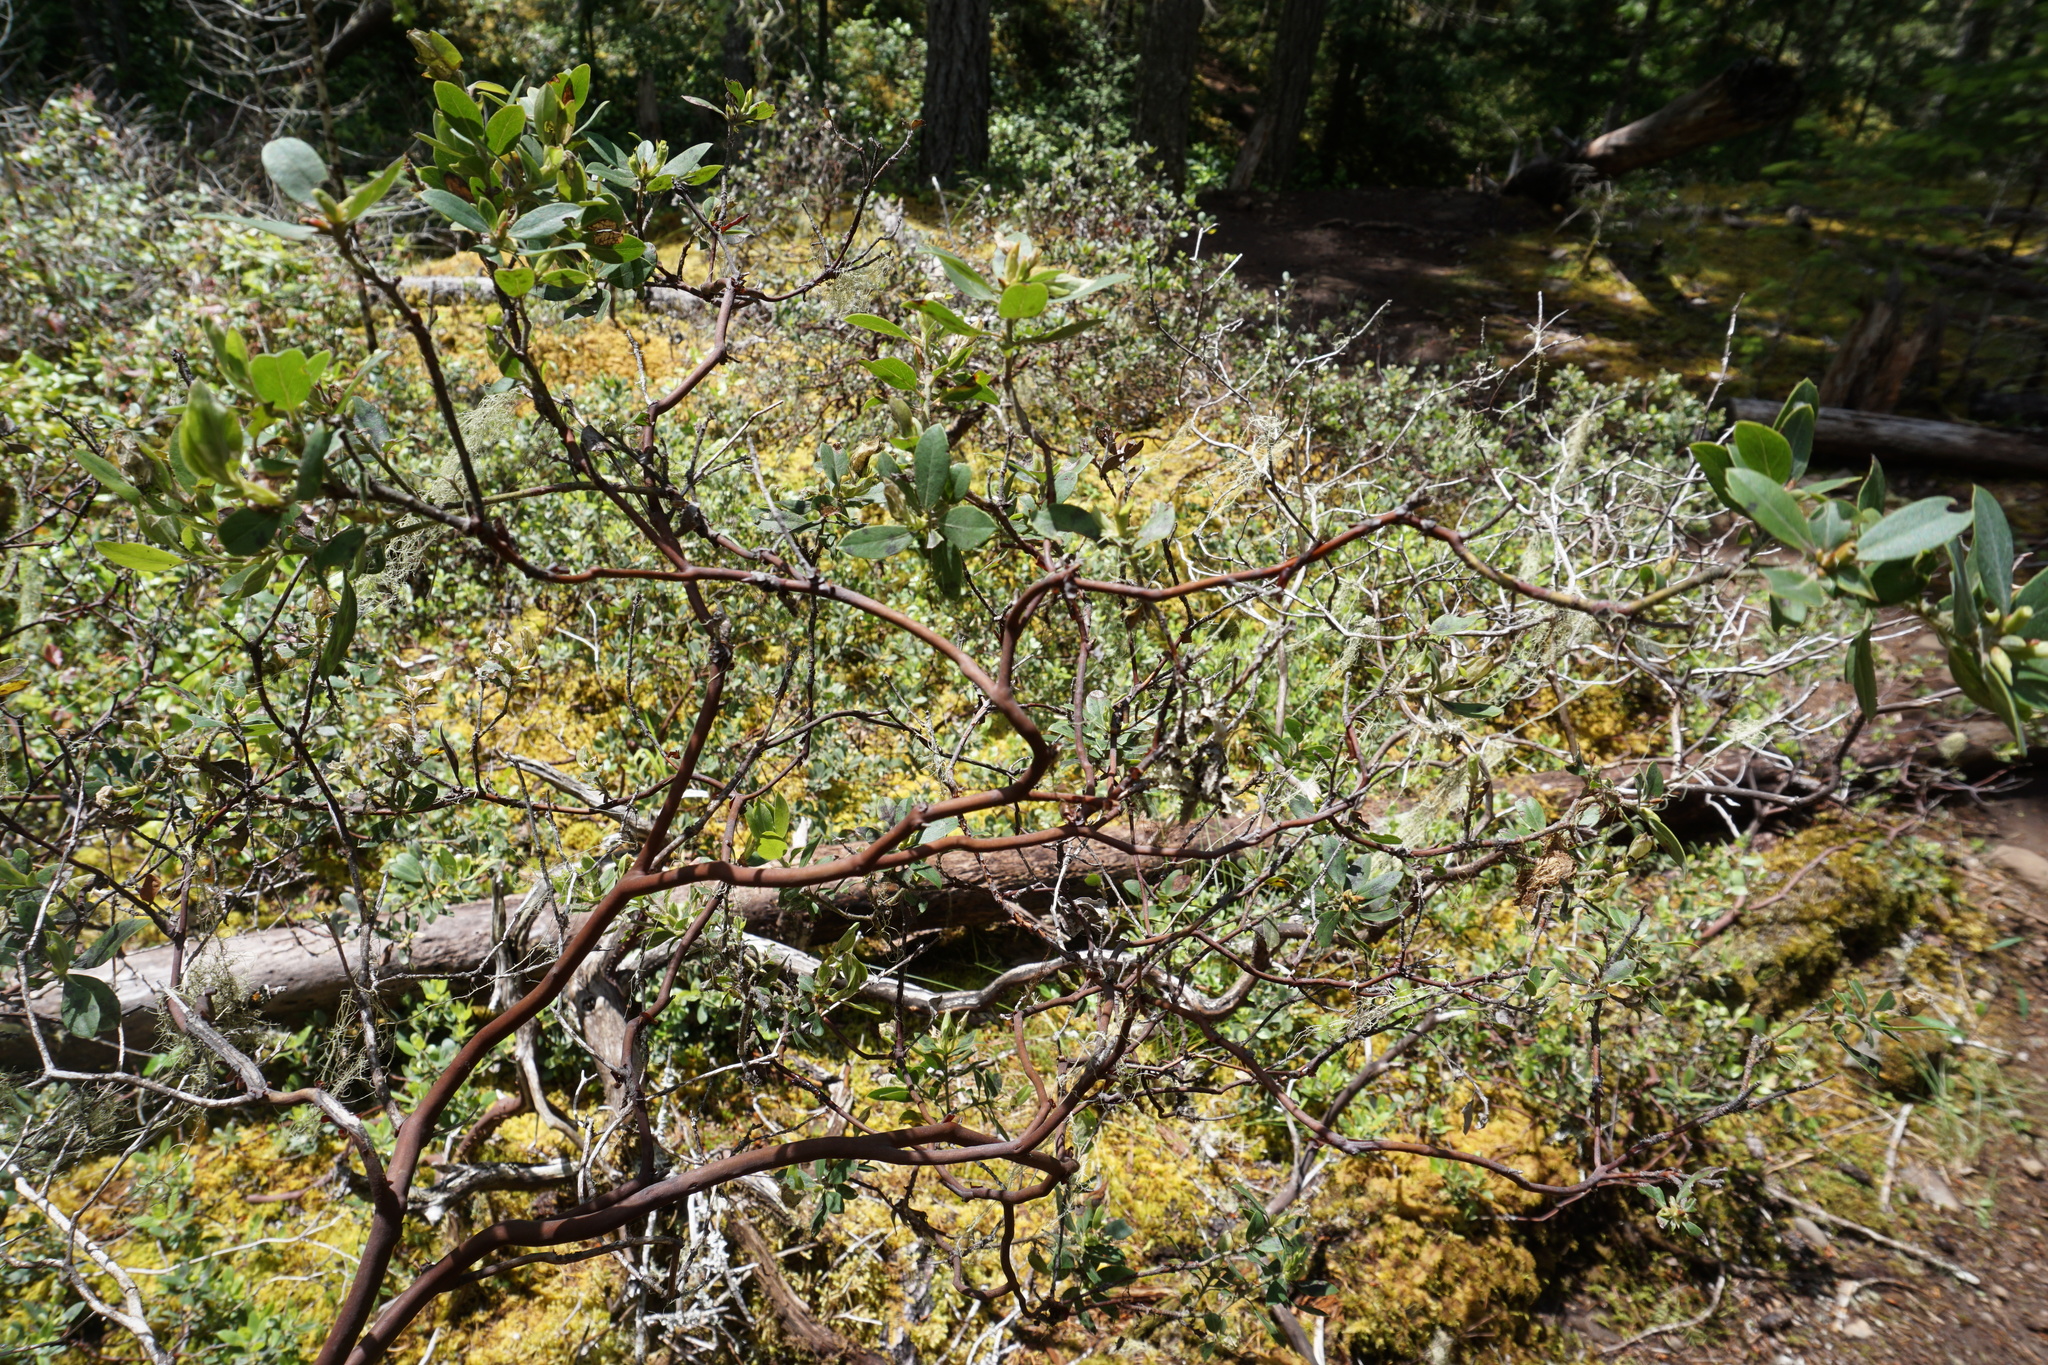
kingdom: Plantae
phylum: Tracheophyta
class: Magnoliopsida
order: Ericales
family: Ericaceae
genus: Arctostaphylos
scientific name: Arctostaphylos columbiana
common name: Bristly bearberry
